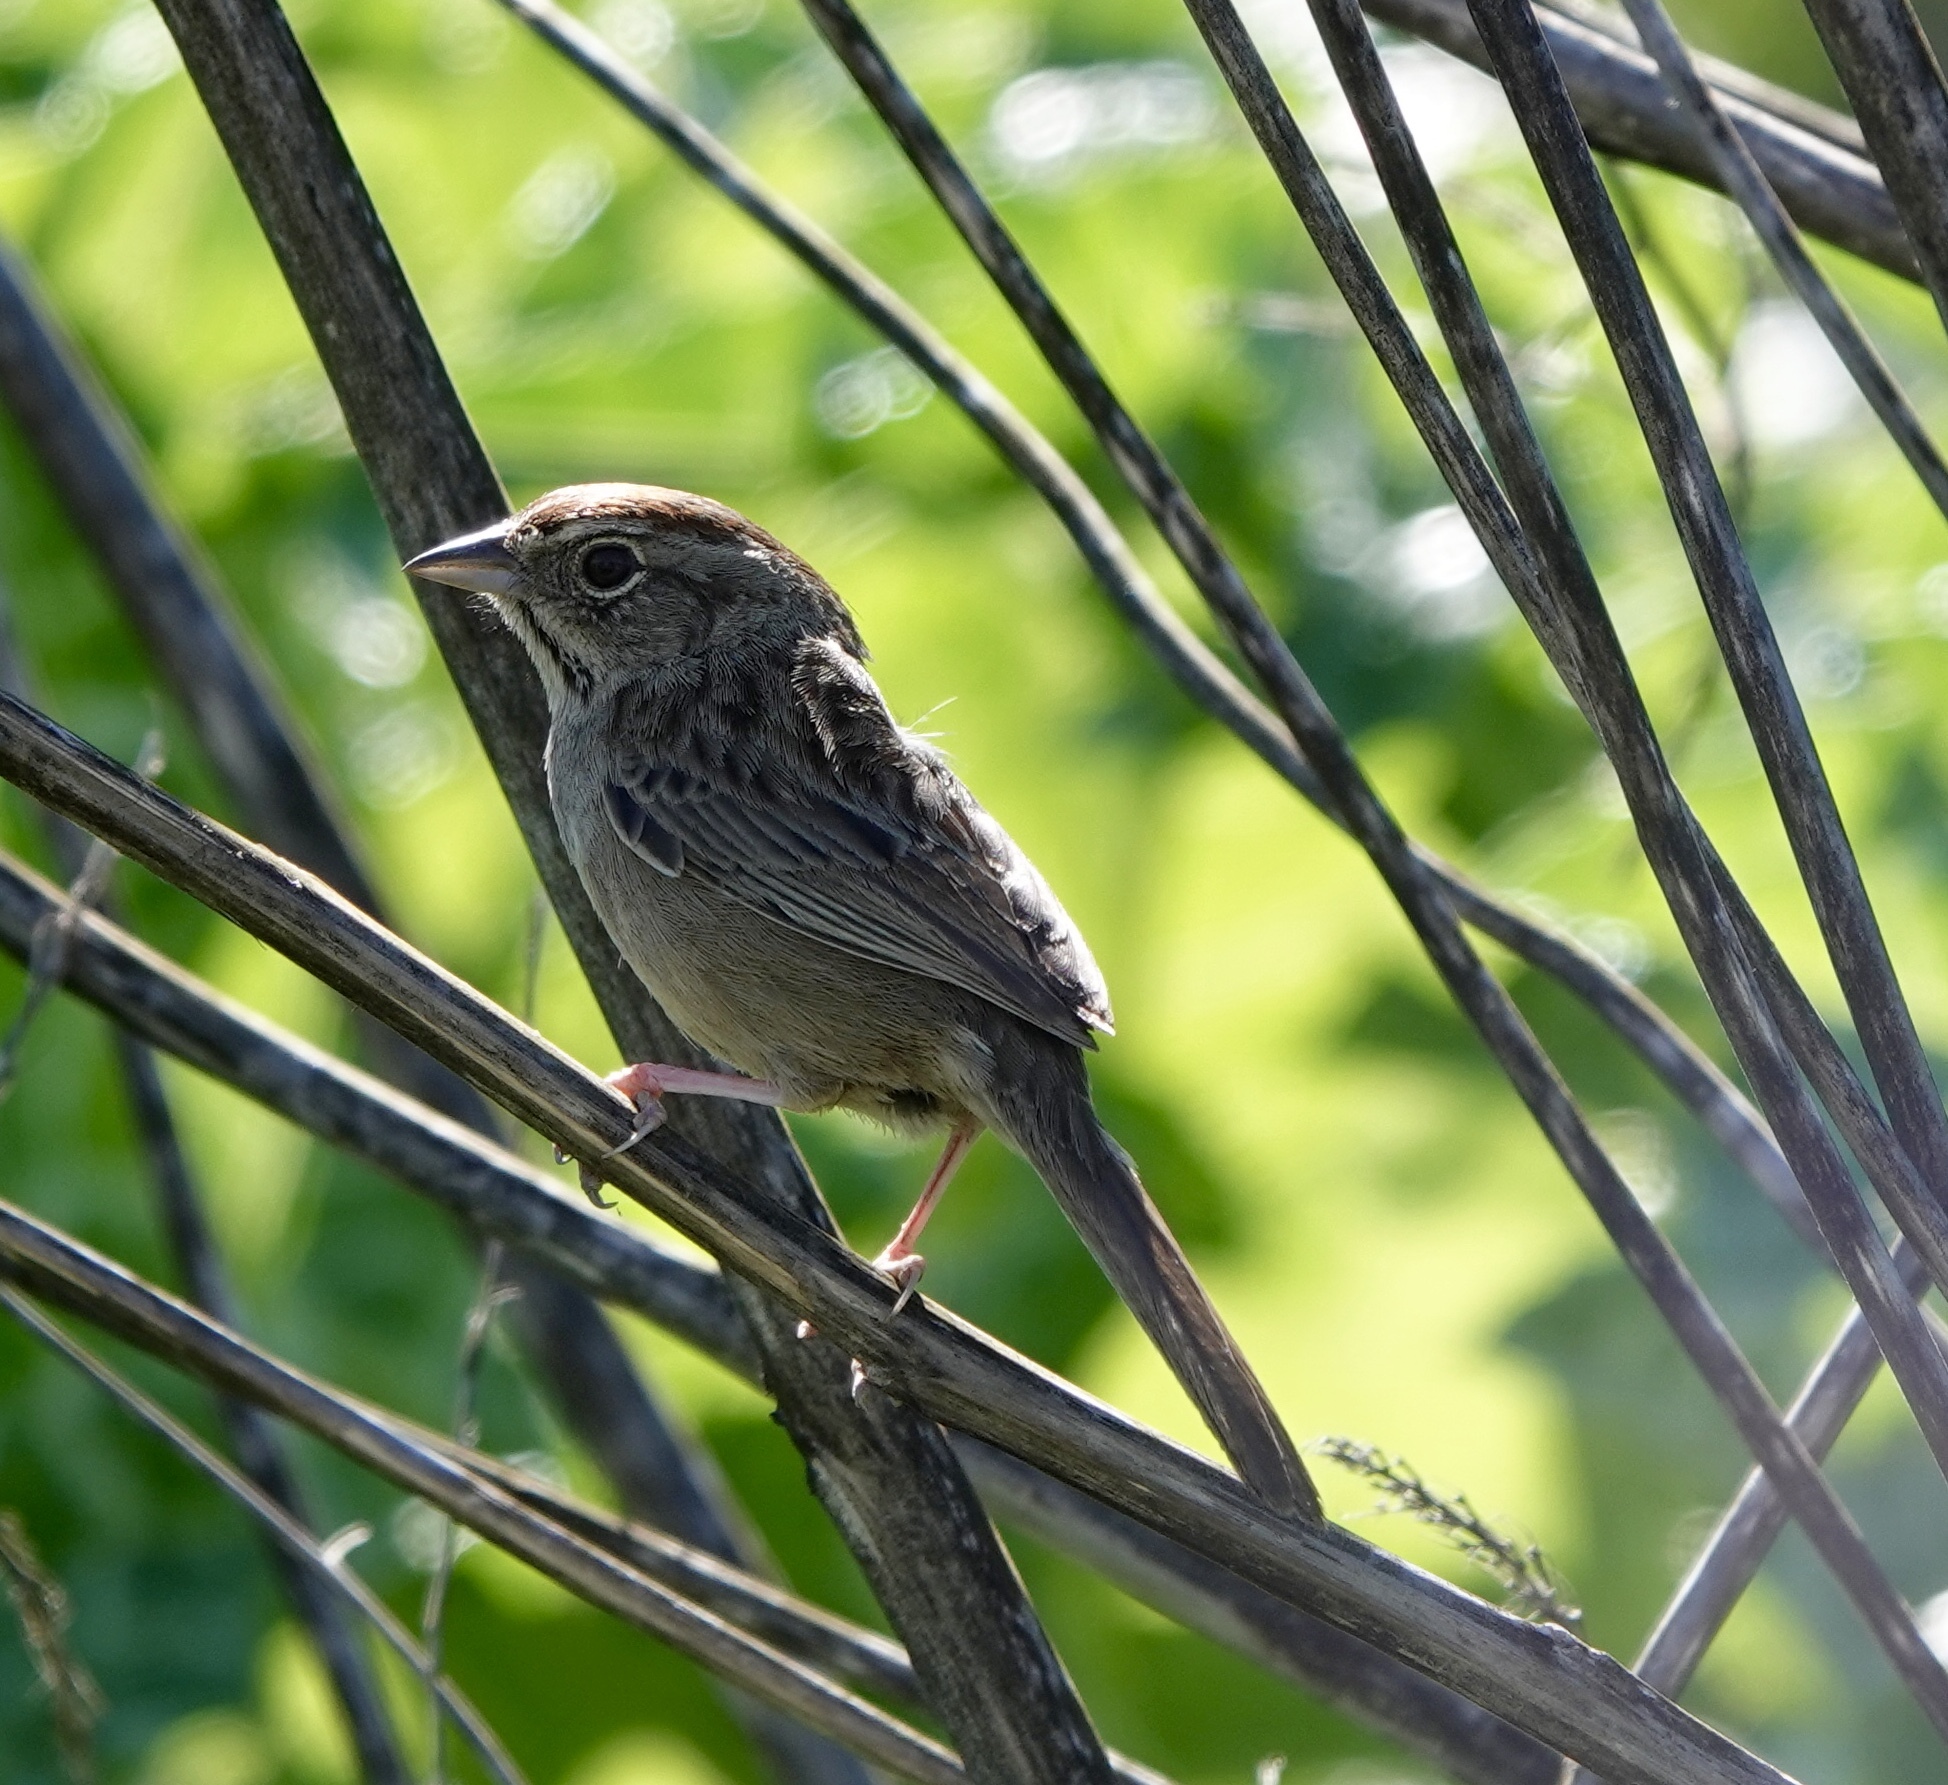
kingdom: Animalia
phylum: Chordata
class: Aves
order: Passeriformes
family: Passerellidae
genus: Aimophila
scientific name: Aimophila ruficeps
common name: Rufous-crowned sparrow
